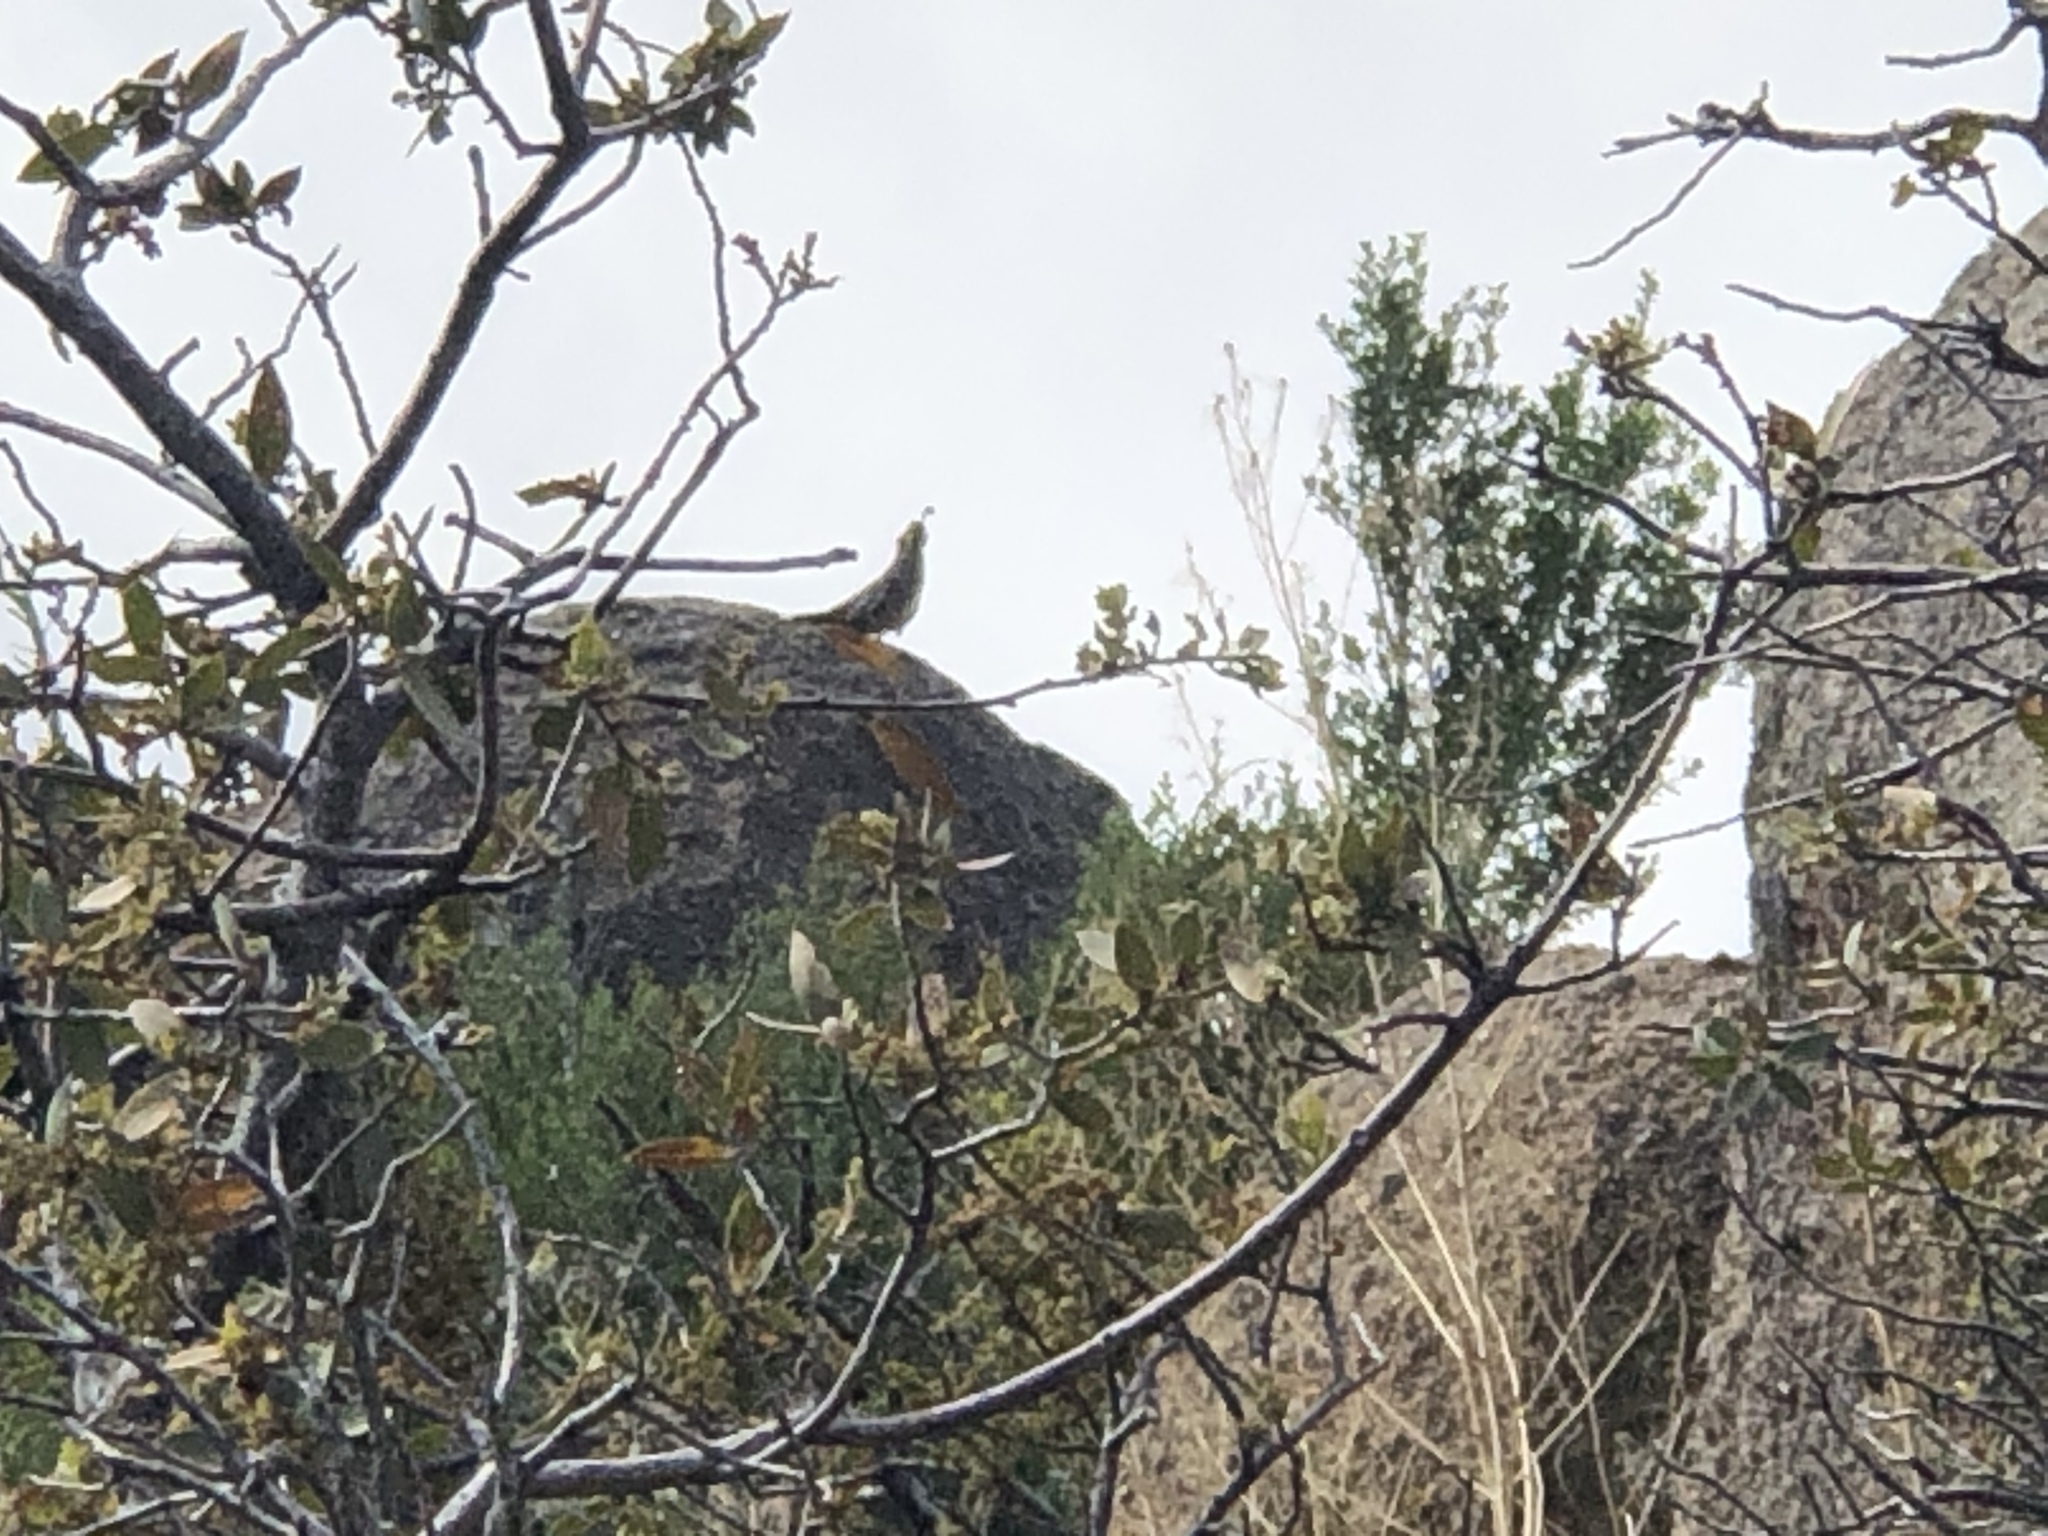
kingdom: Animalia
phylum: Chordata
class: Aves
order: Galliformes
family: Odontophoridae
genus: Callipepla
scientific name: Callipepla gambelii
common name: Gambel's quail
